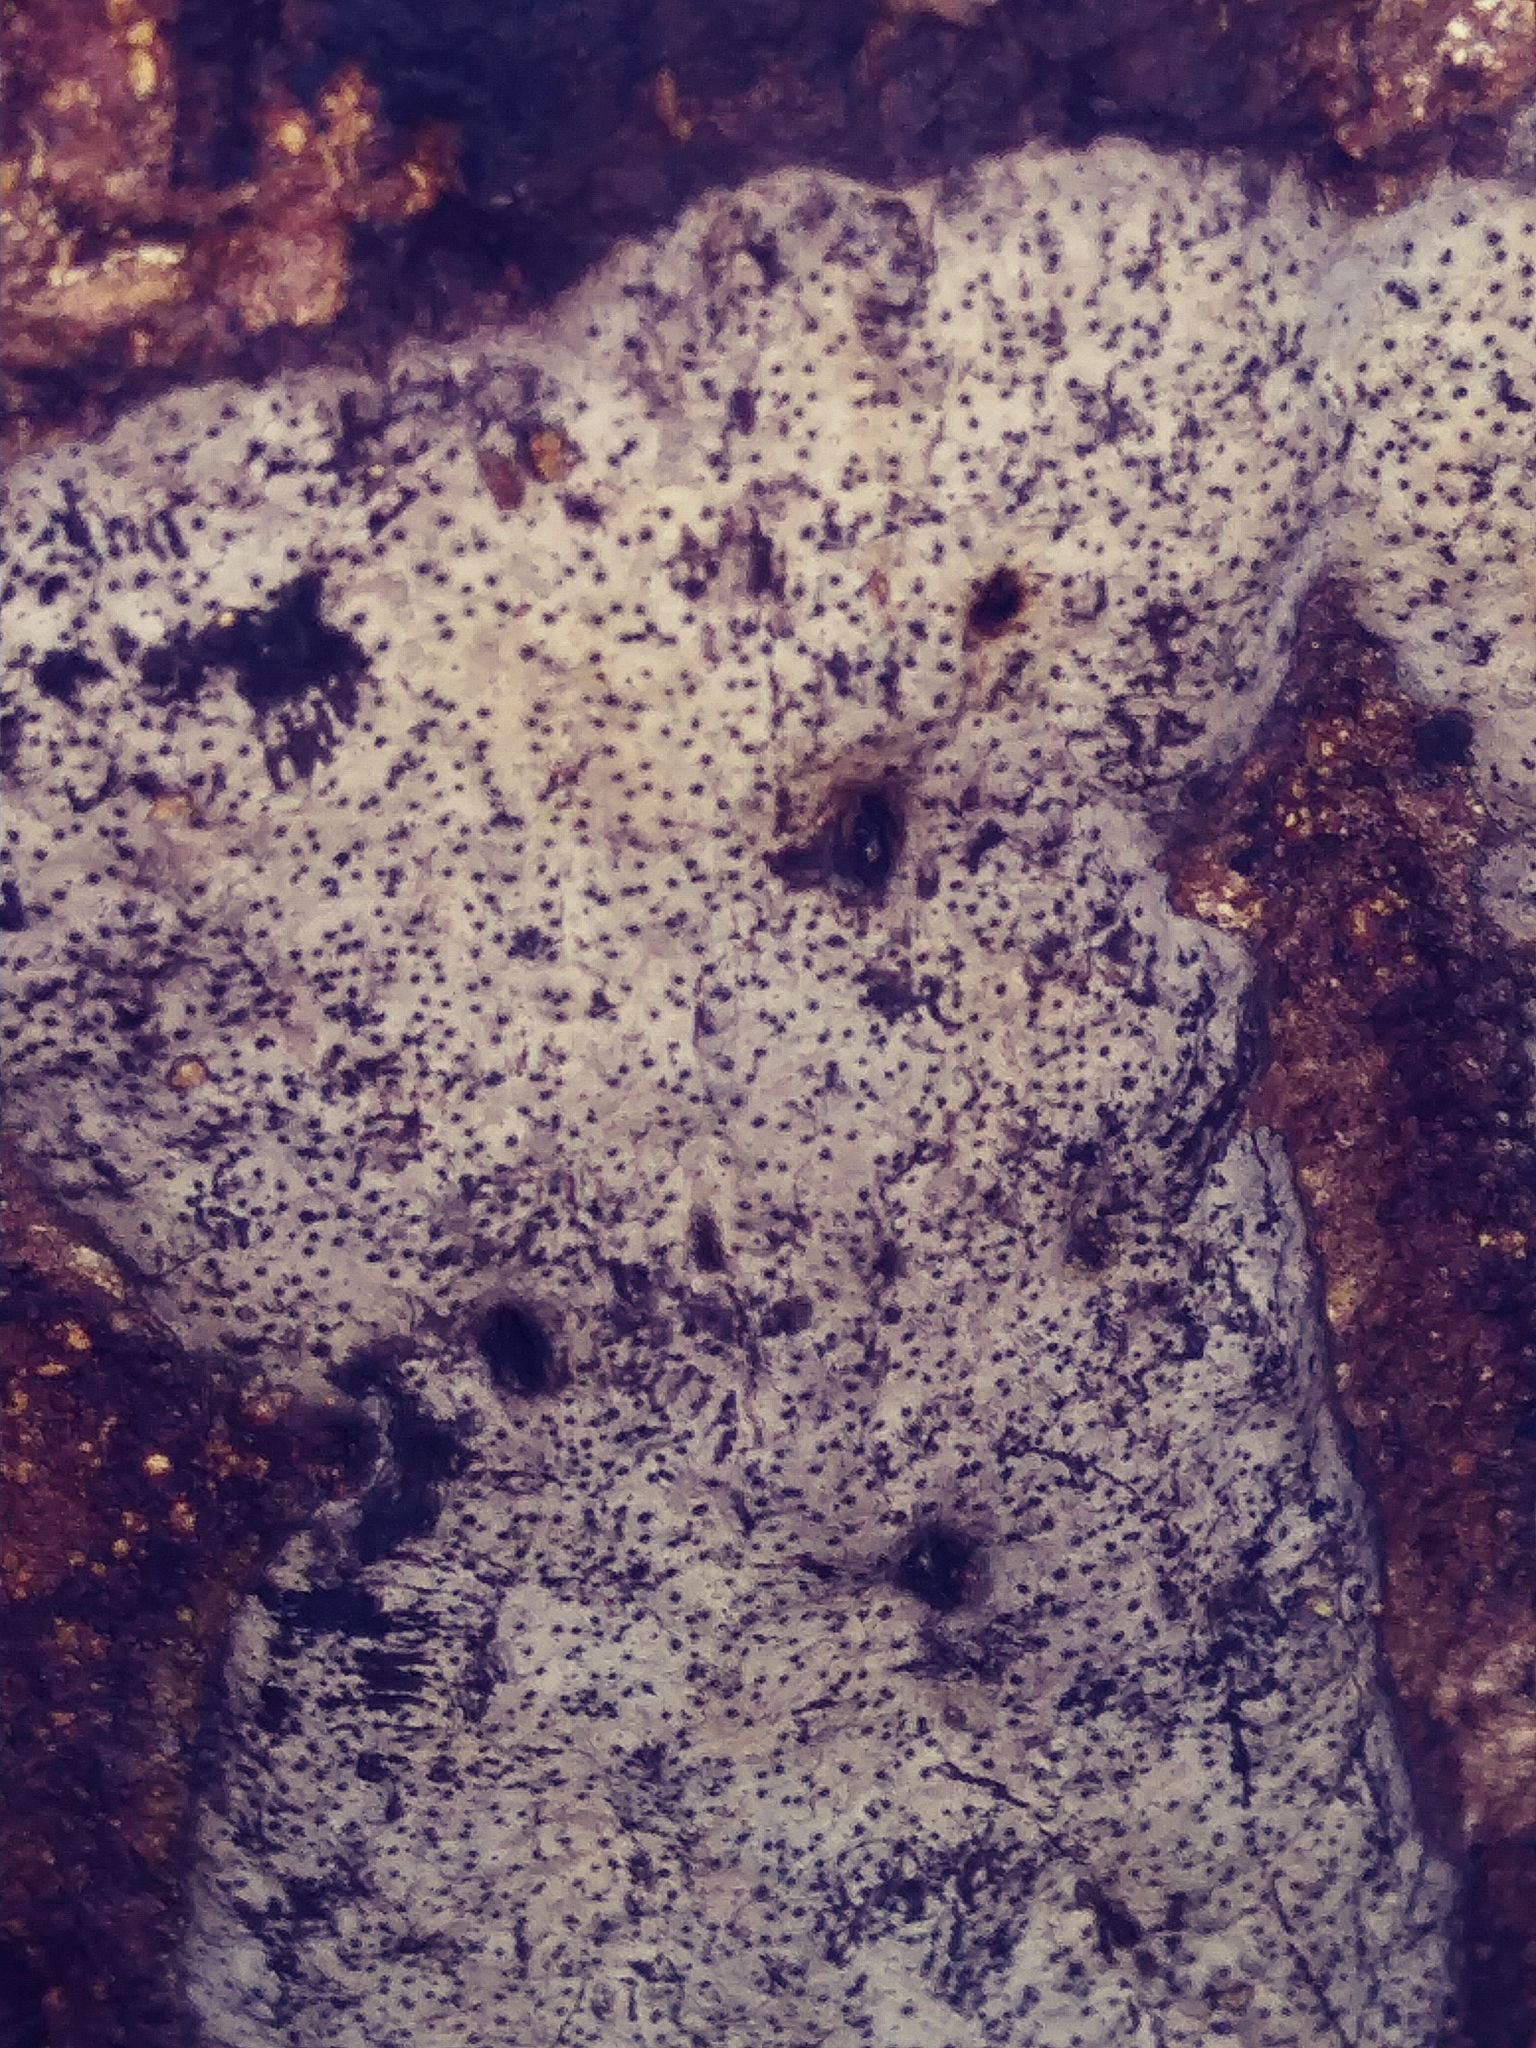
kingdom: Fungi
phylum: Ascomycota
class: Sordariomycetes
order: Xylariales
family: Graphostromataceae
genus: Biscogniauxia
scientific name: Biscogniauxia atropunctata
